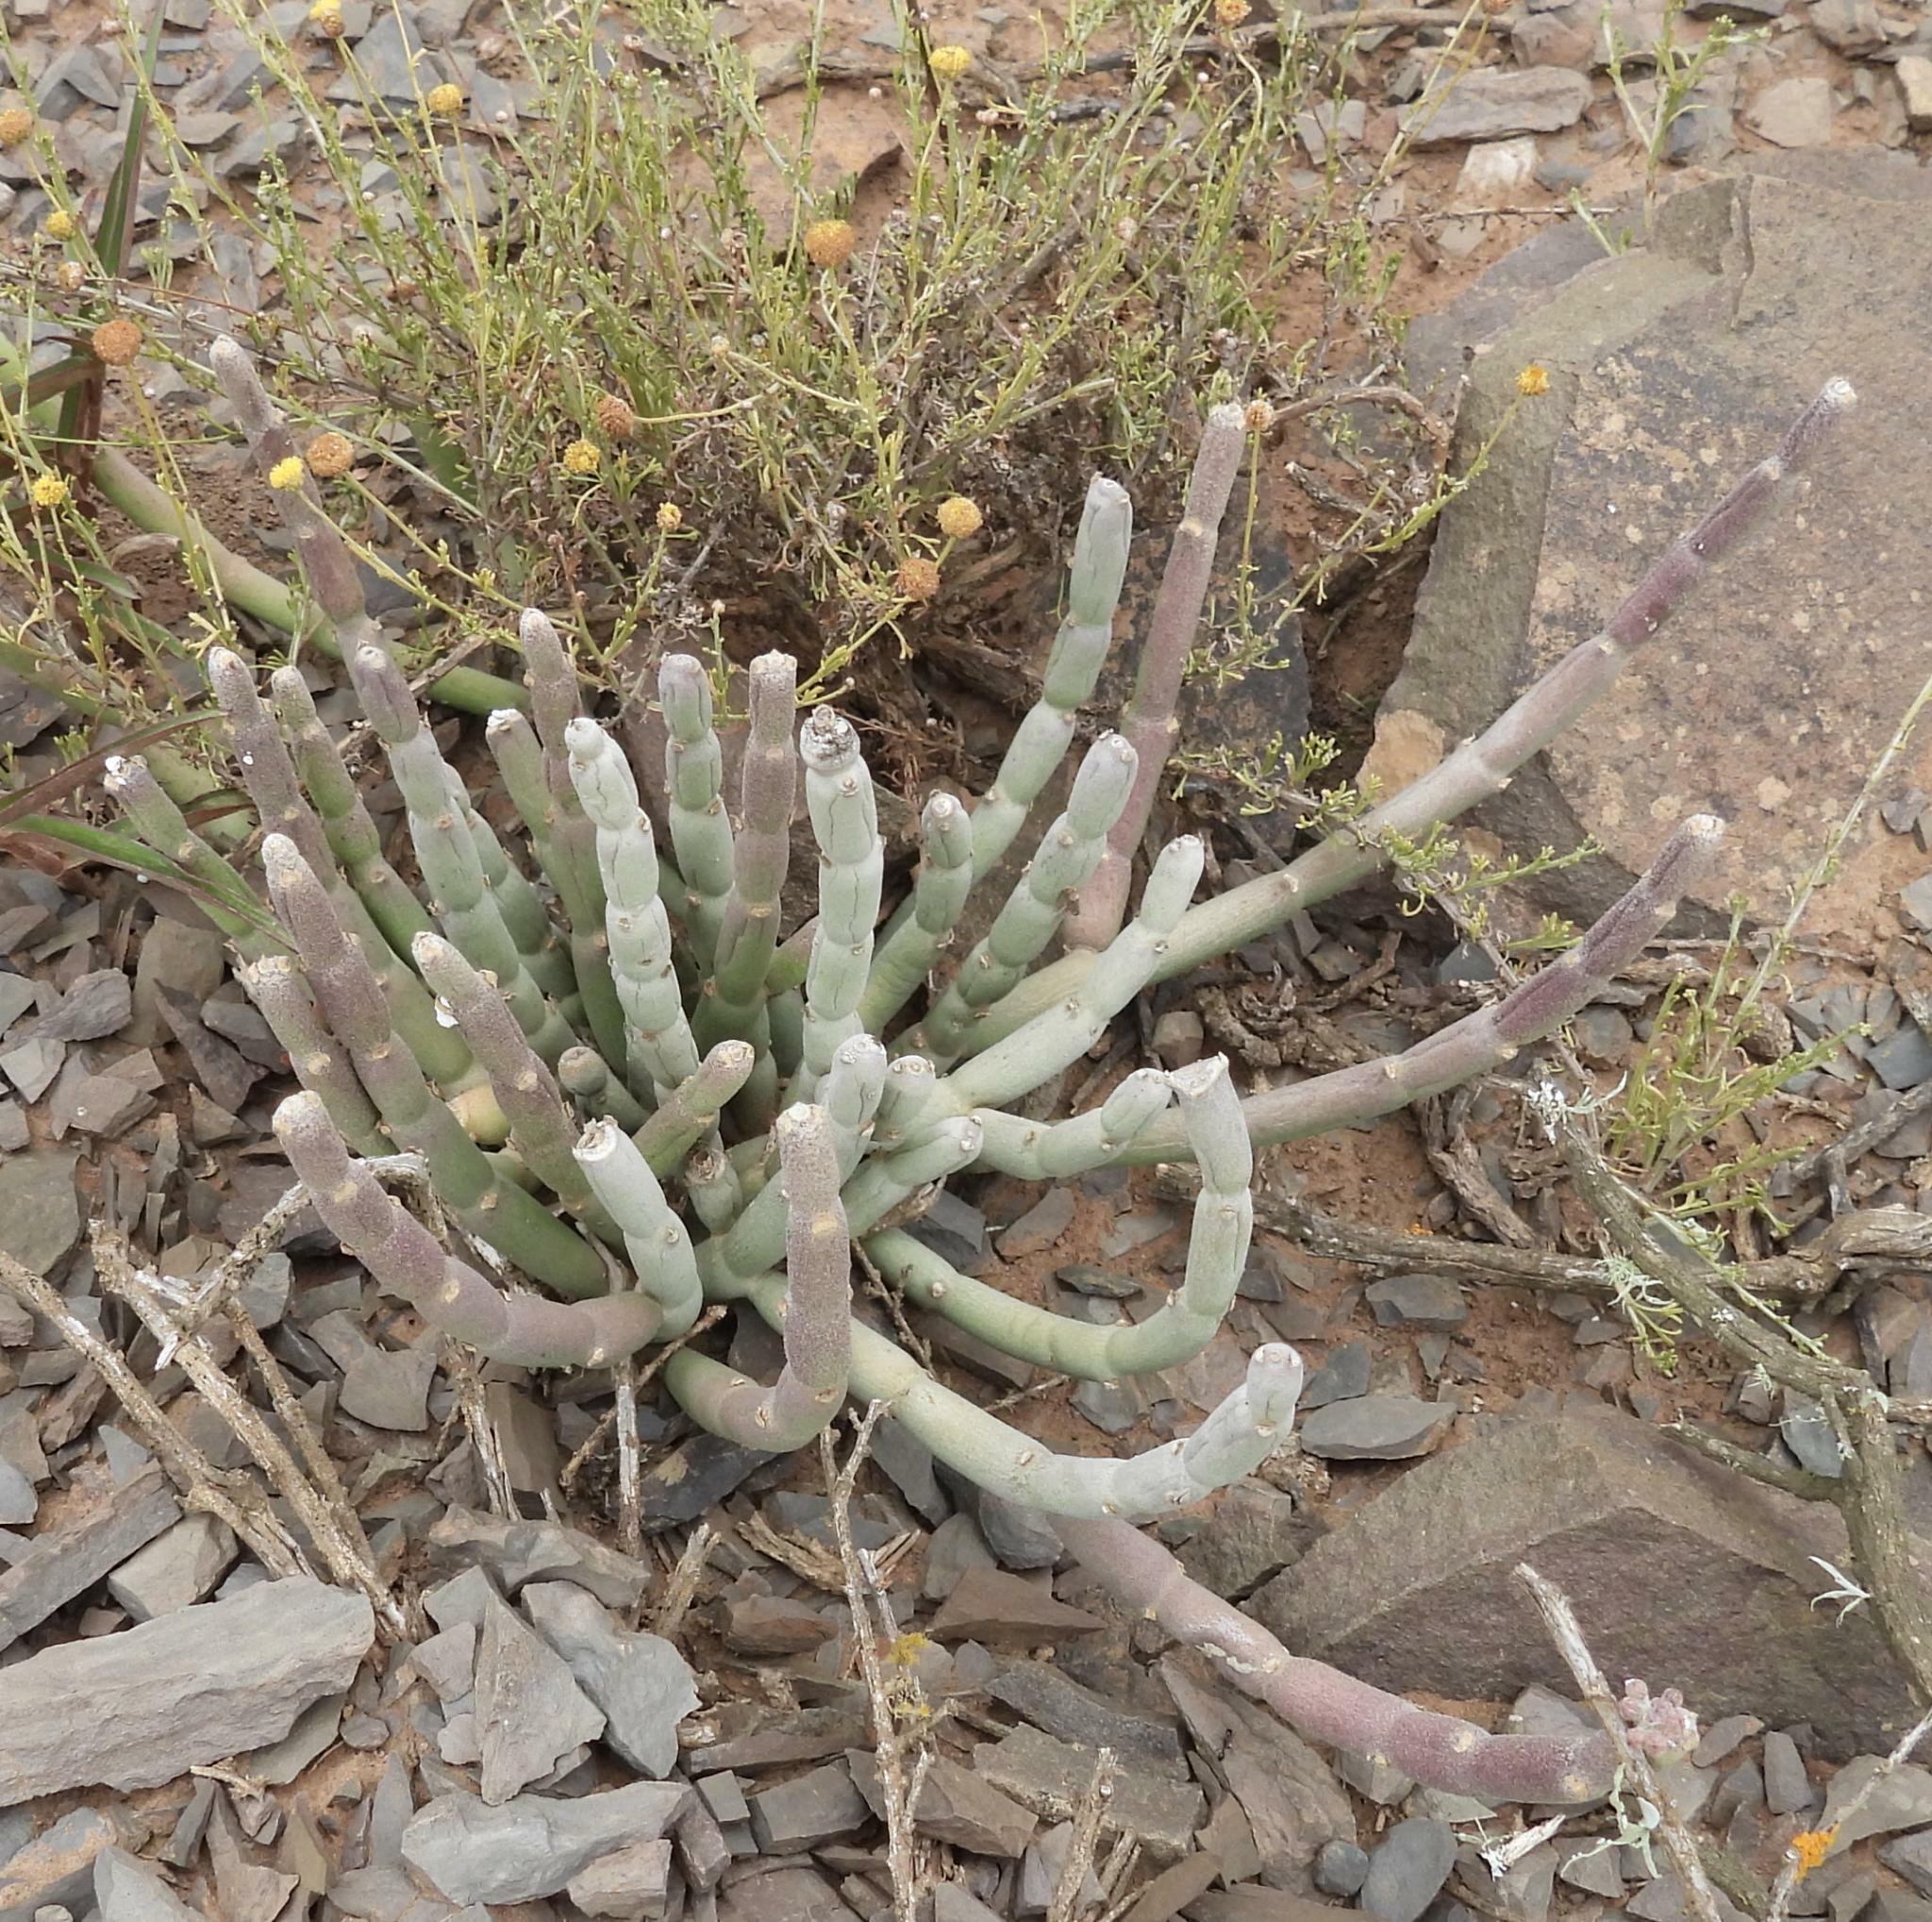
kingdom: Plantae
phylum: Tracheophyta
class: Magnoliopsida
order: Malpighiales
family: Euphorbiaceae
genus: Euphorbia
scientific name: Euphorbia mauritanica
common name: Jackal's-food
